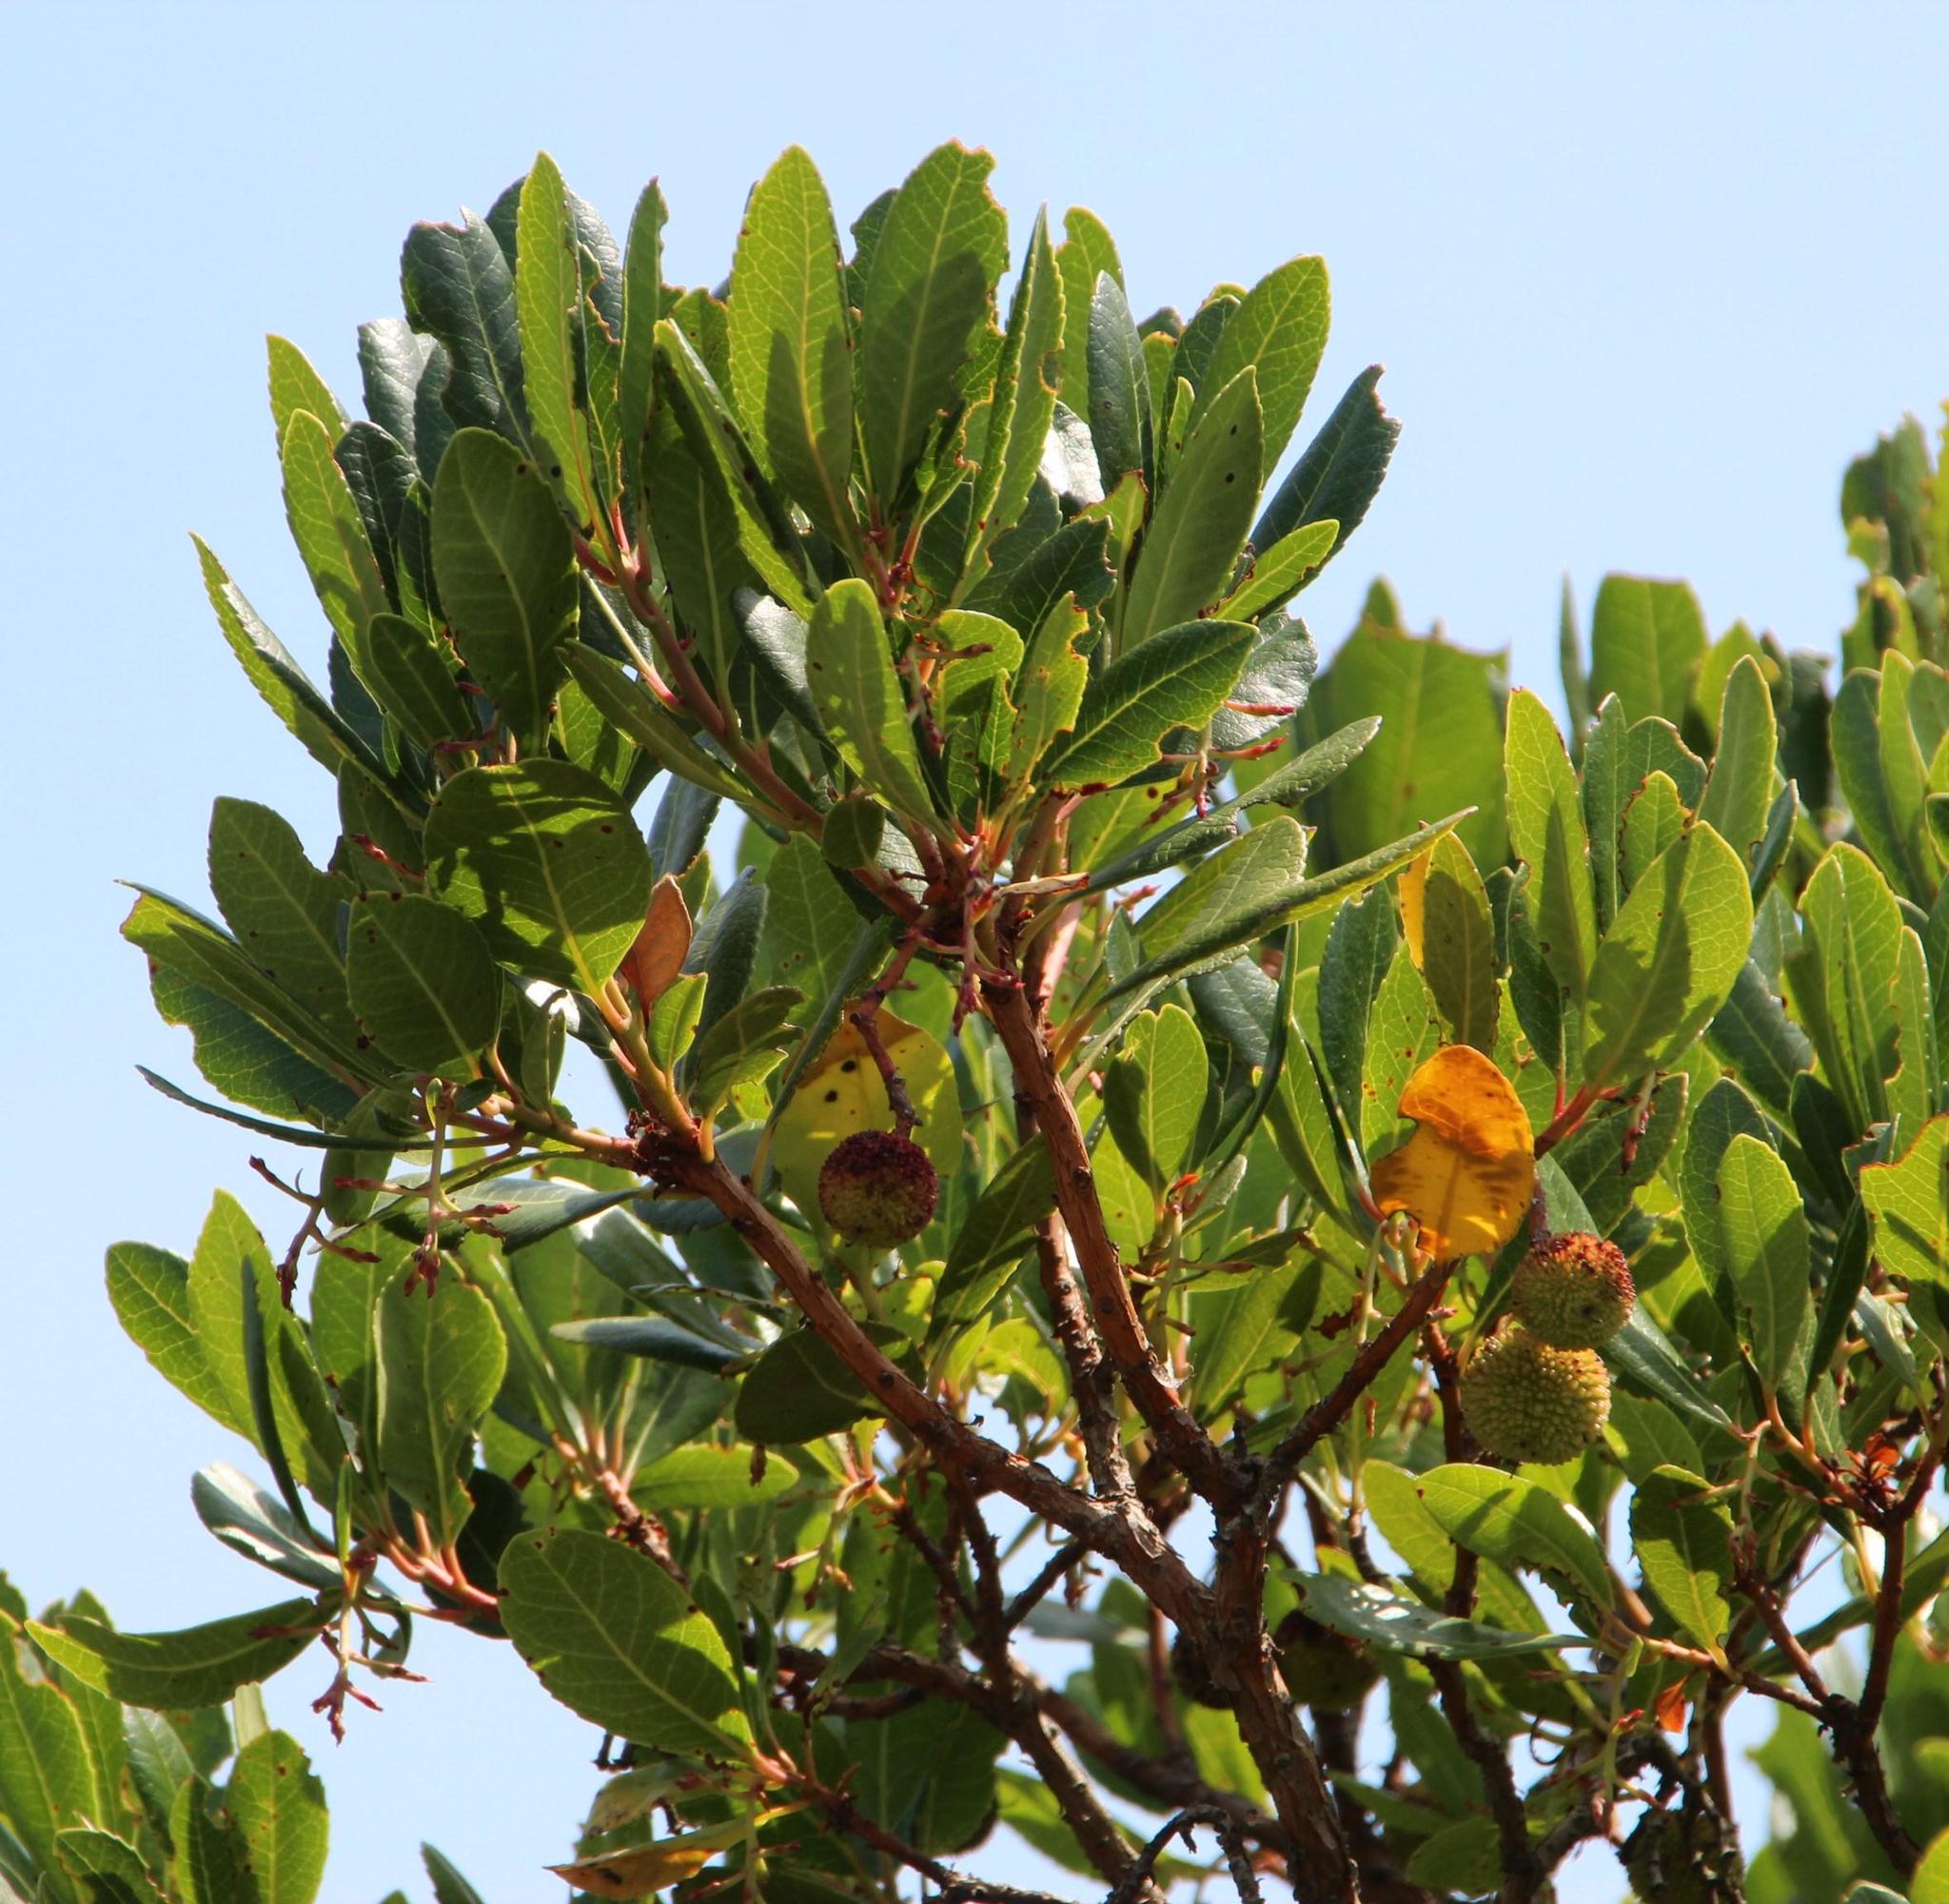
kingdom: Plantae
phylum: Tracheophyta
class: Magnoliopsida
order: Ericales
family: Ericaceae
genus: Arbutus
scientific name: Arbutus unedo
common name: Strawberry-tree
